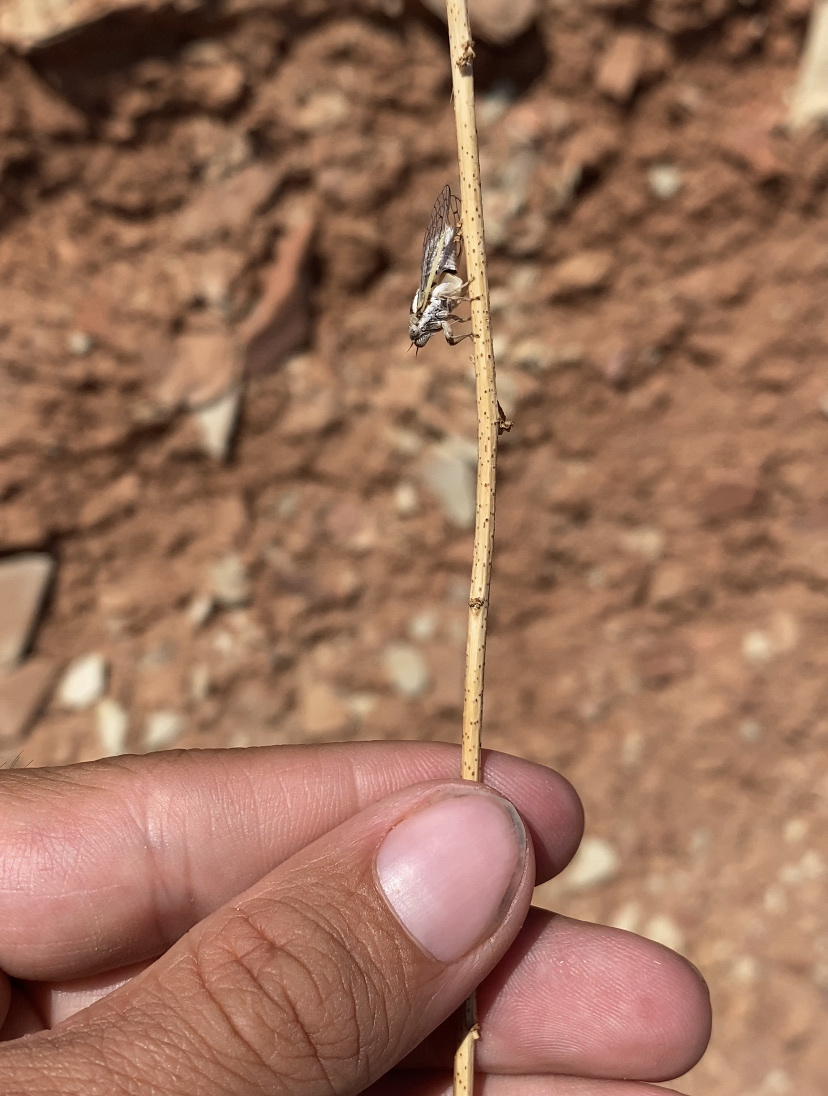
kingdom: Animalia
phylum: Arthropoda
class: Insecta
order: Hemiptera
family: Cicadidae
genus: Beameria
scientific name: Beameria ansercollis
